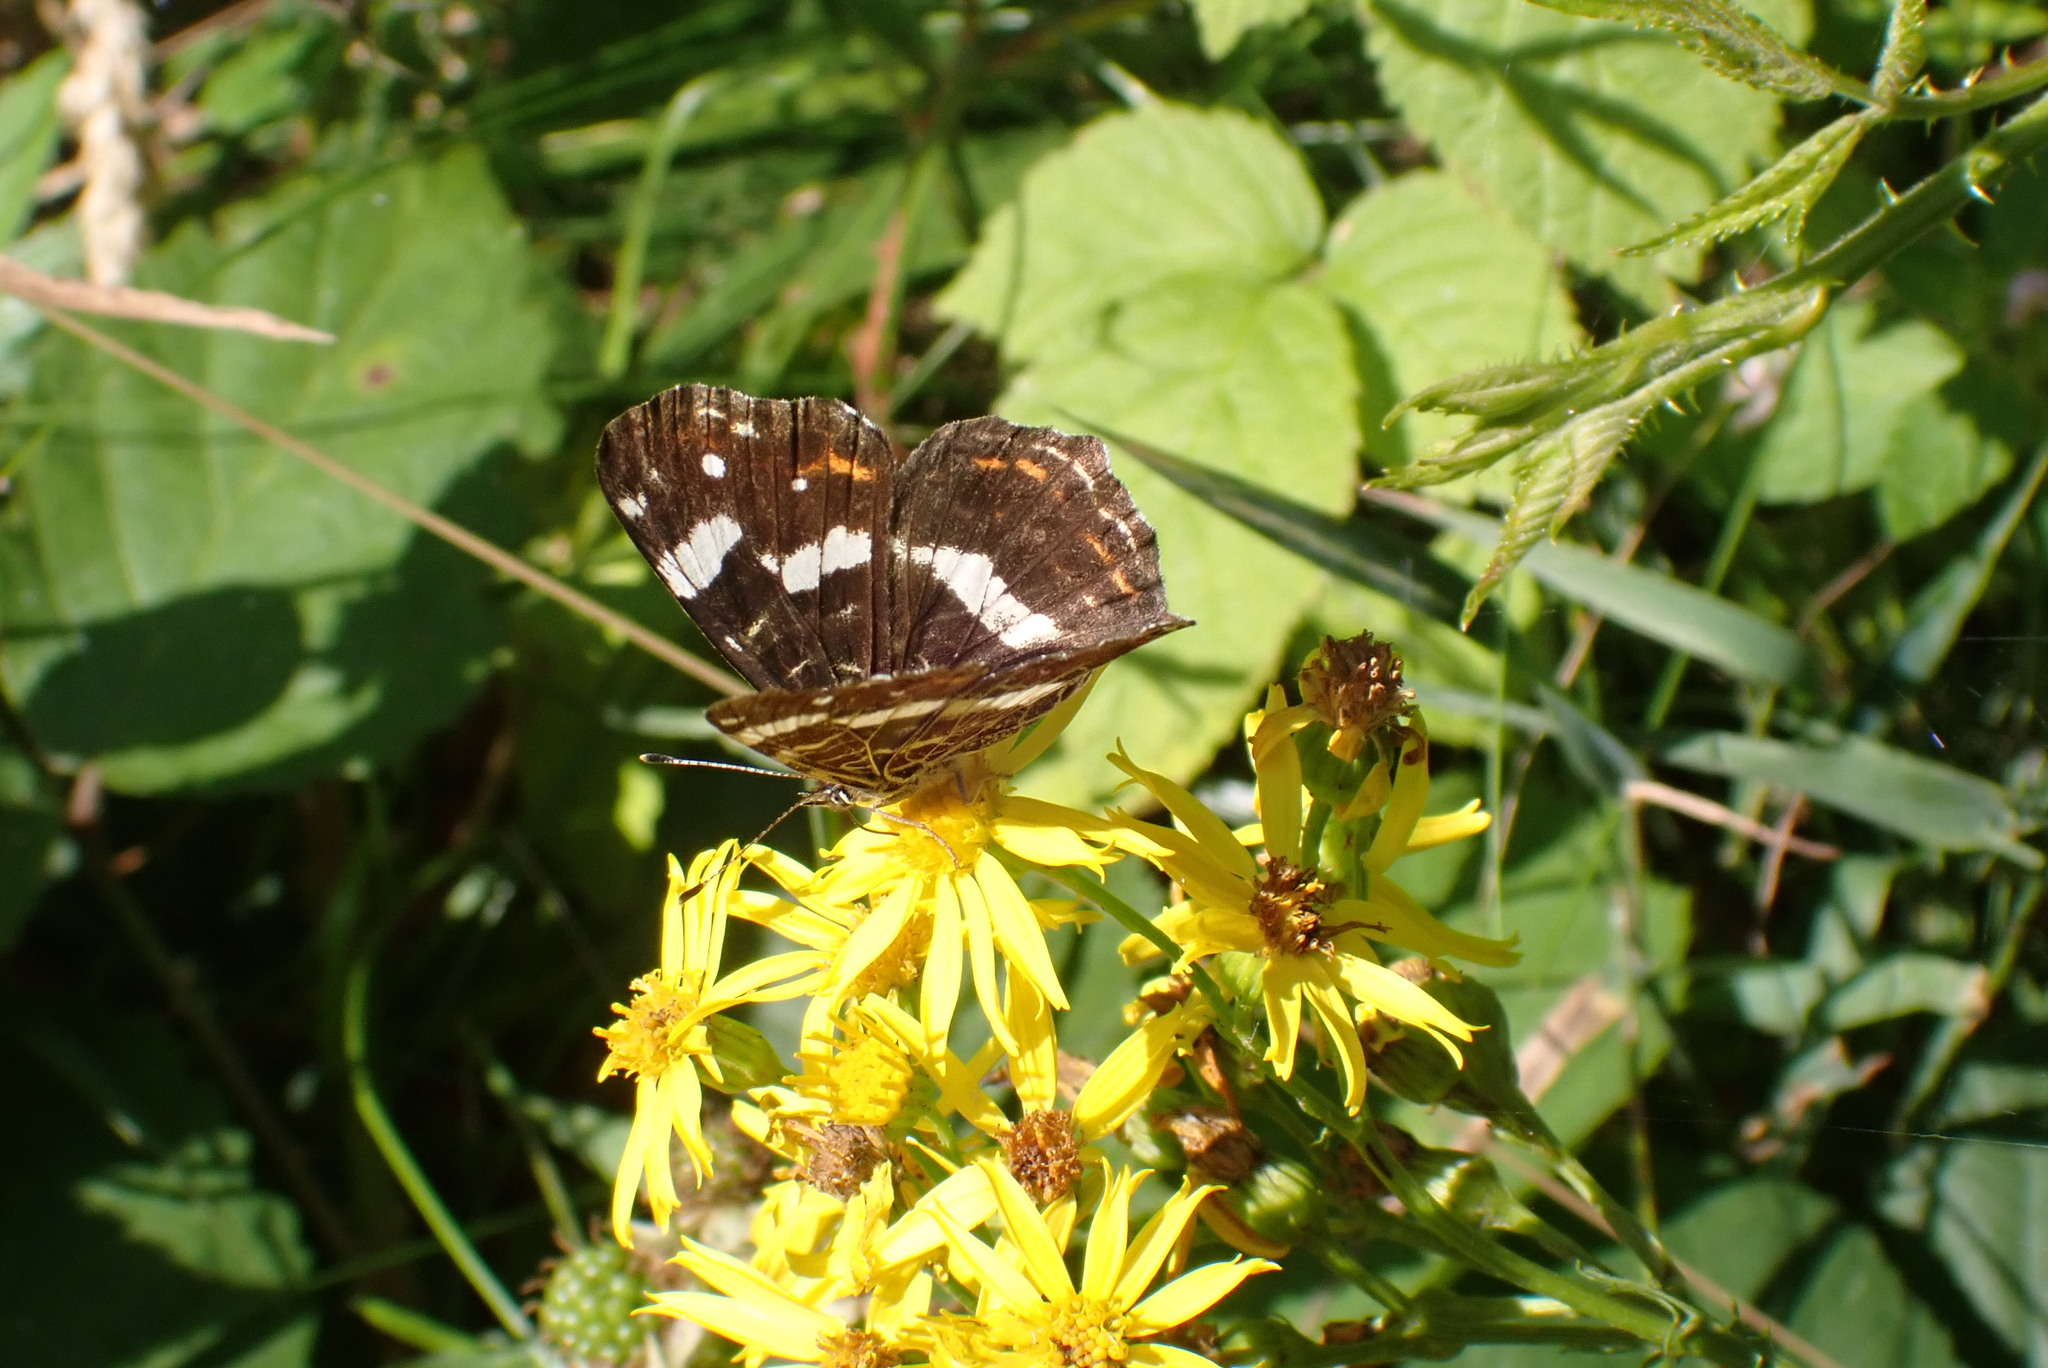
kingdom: Animalia
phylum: Arthropoda
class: Insecta
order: Lepidoptera
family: Nymphalidae
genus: Araschnia
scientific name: Araschnia levana
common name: Map butterfly
